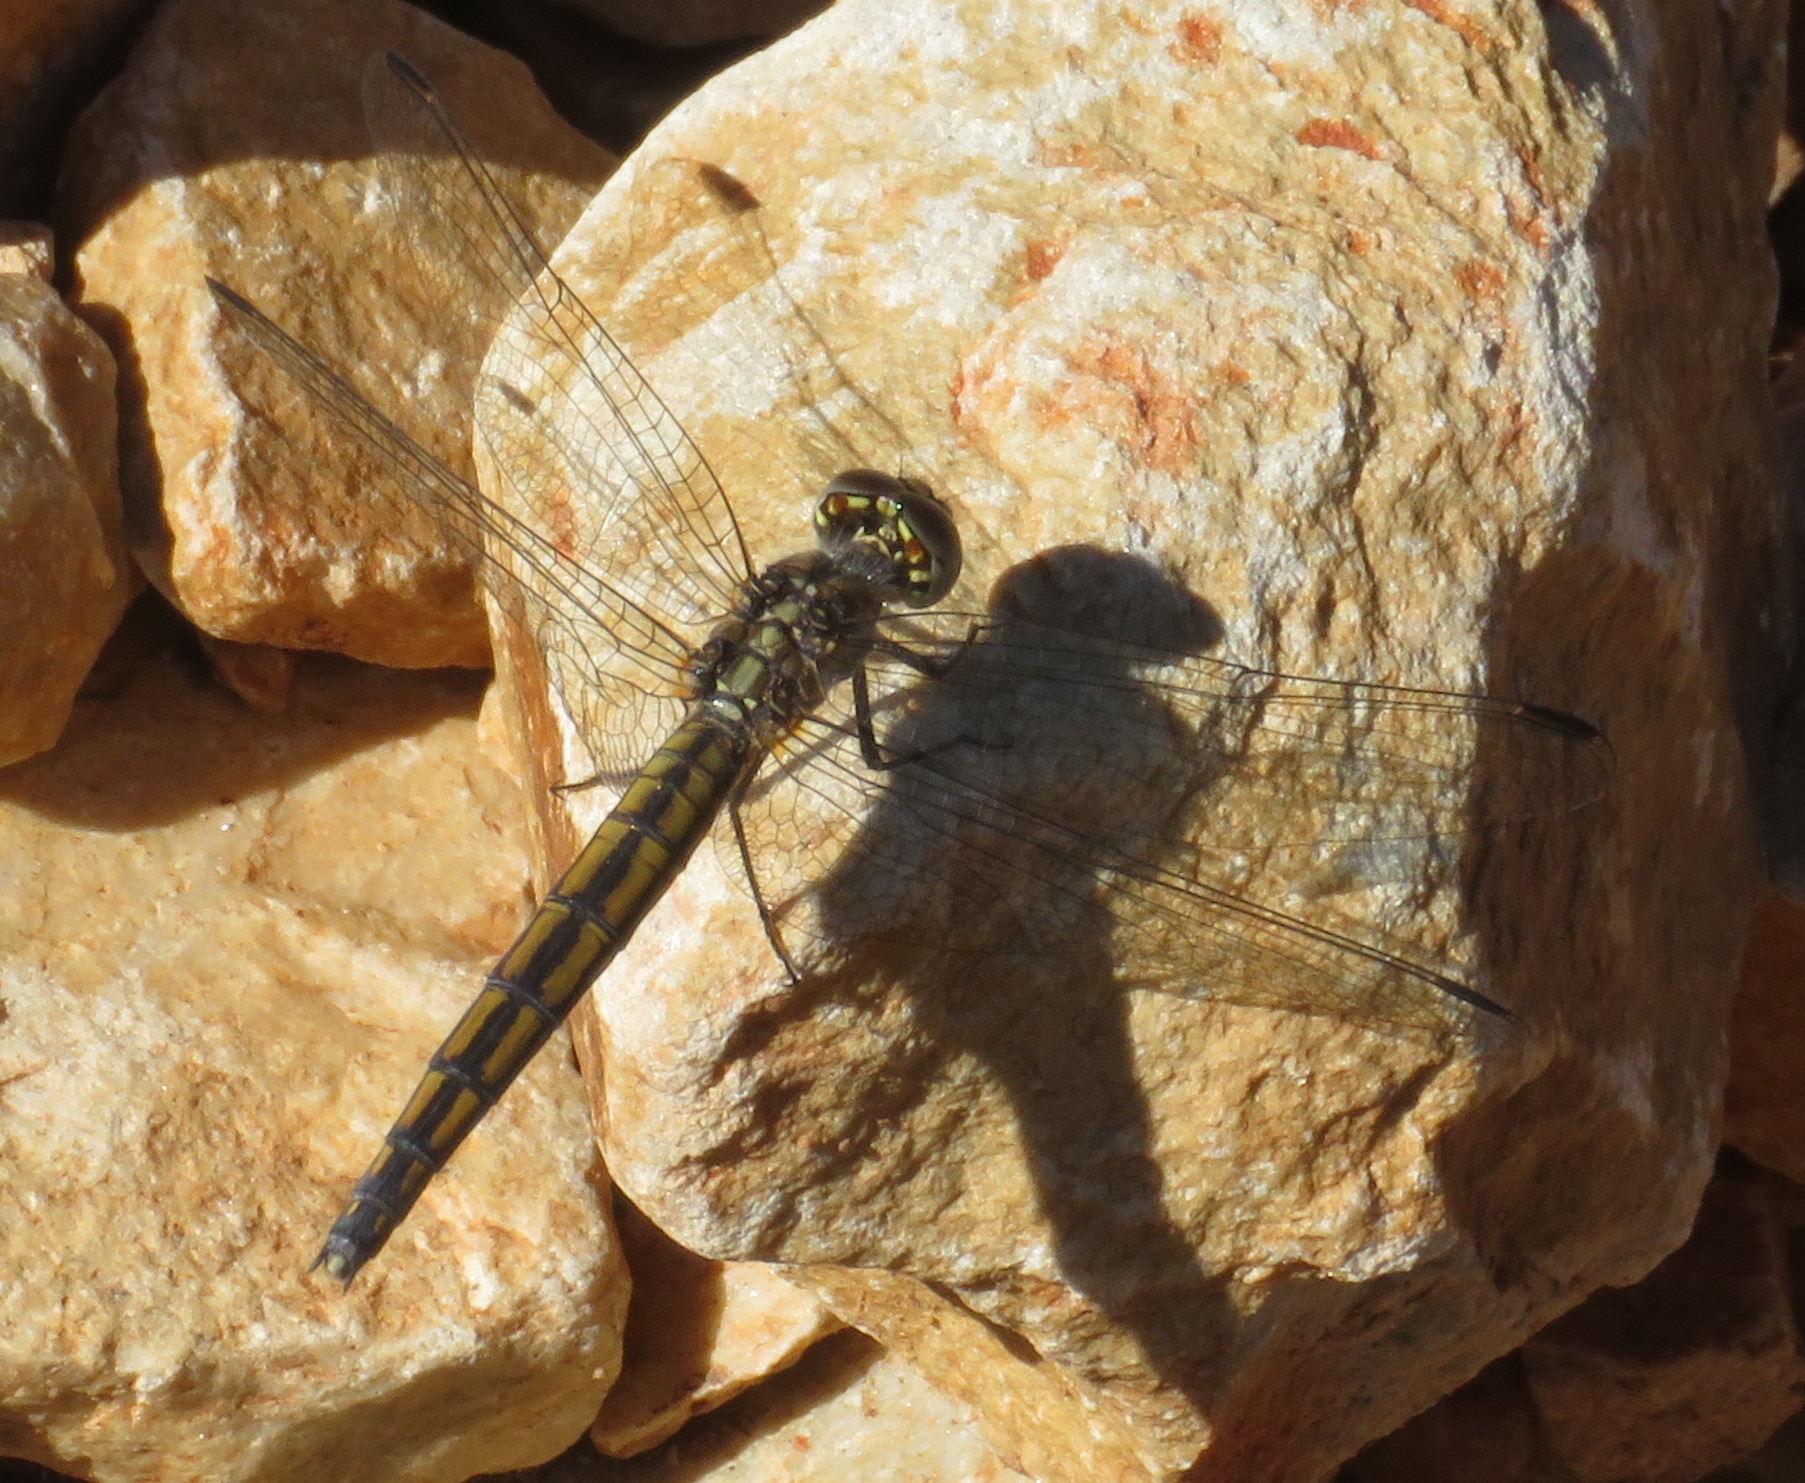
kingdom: Animalia
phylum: Arthropoda
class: Insecta
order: Odonata
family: Libellulidae
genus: Trithemis
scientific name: Trithemis furva
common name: Dark dropwing
